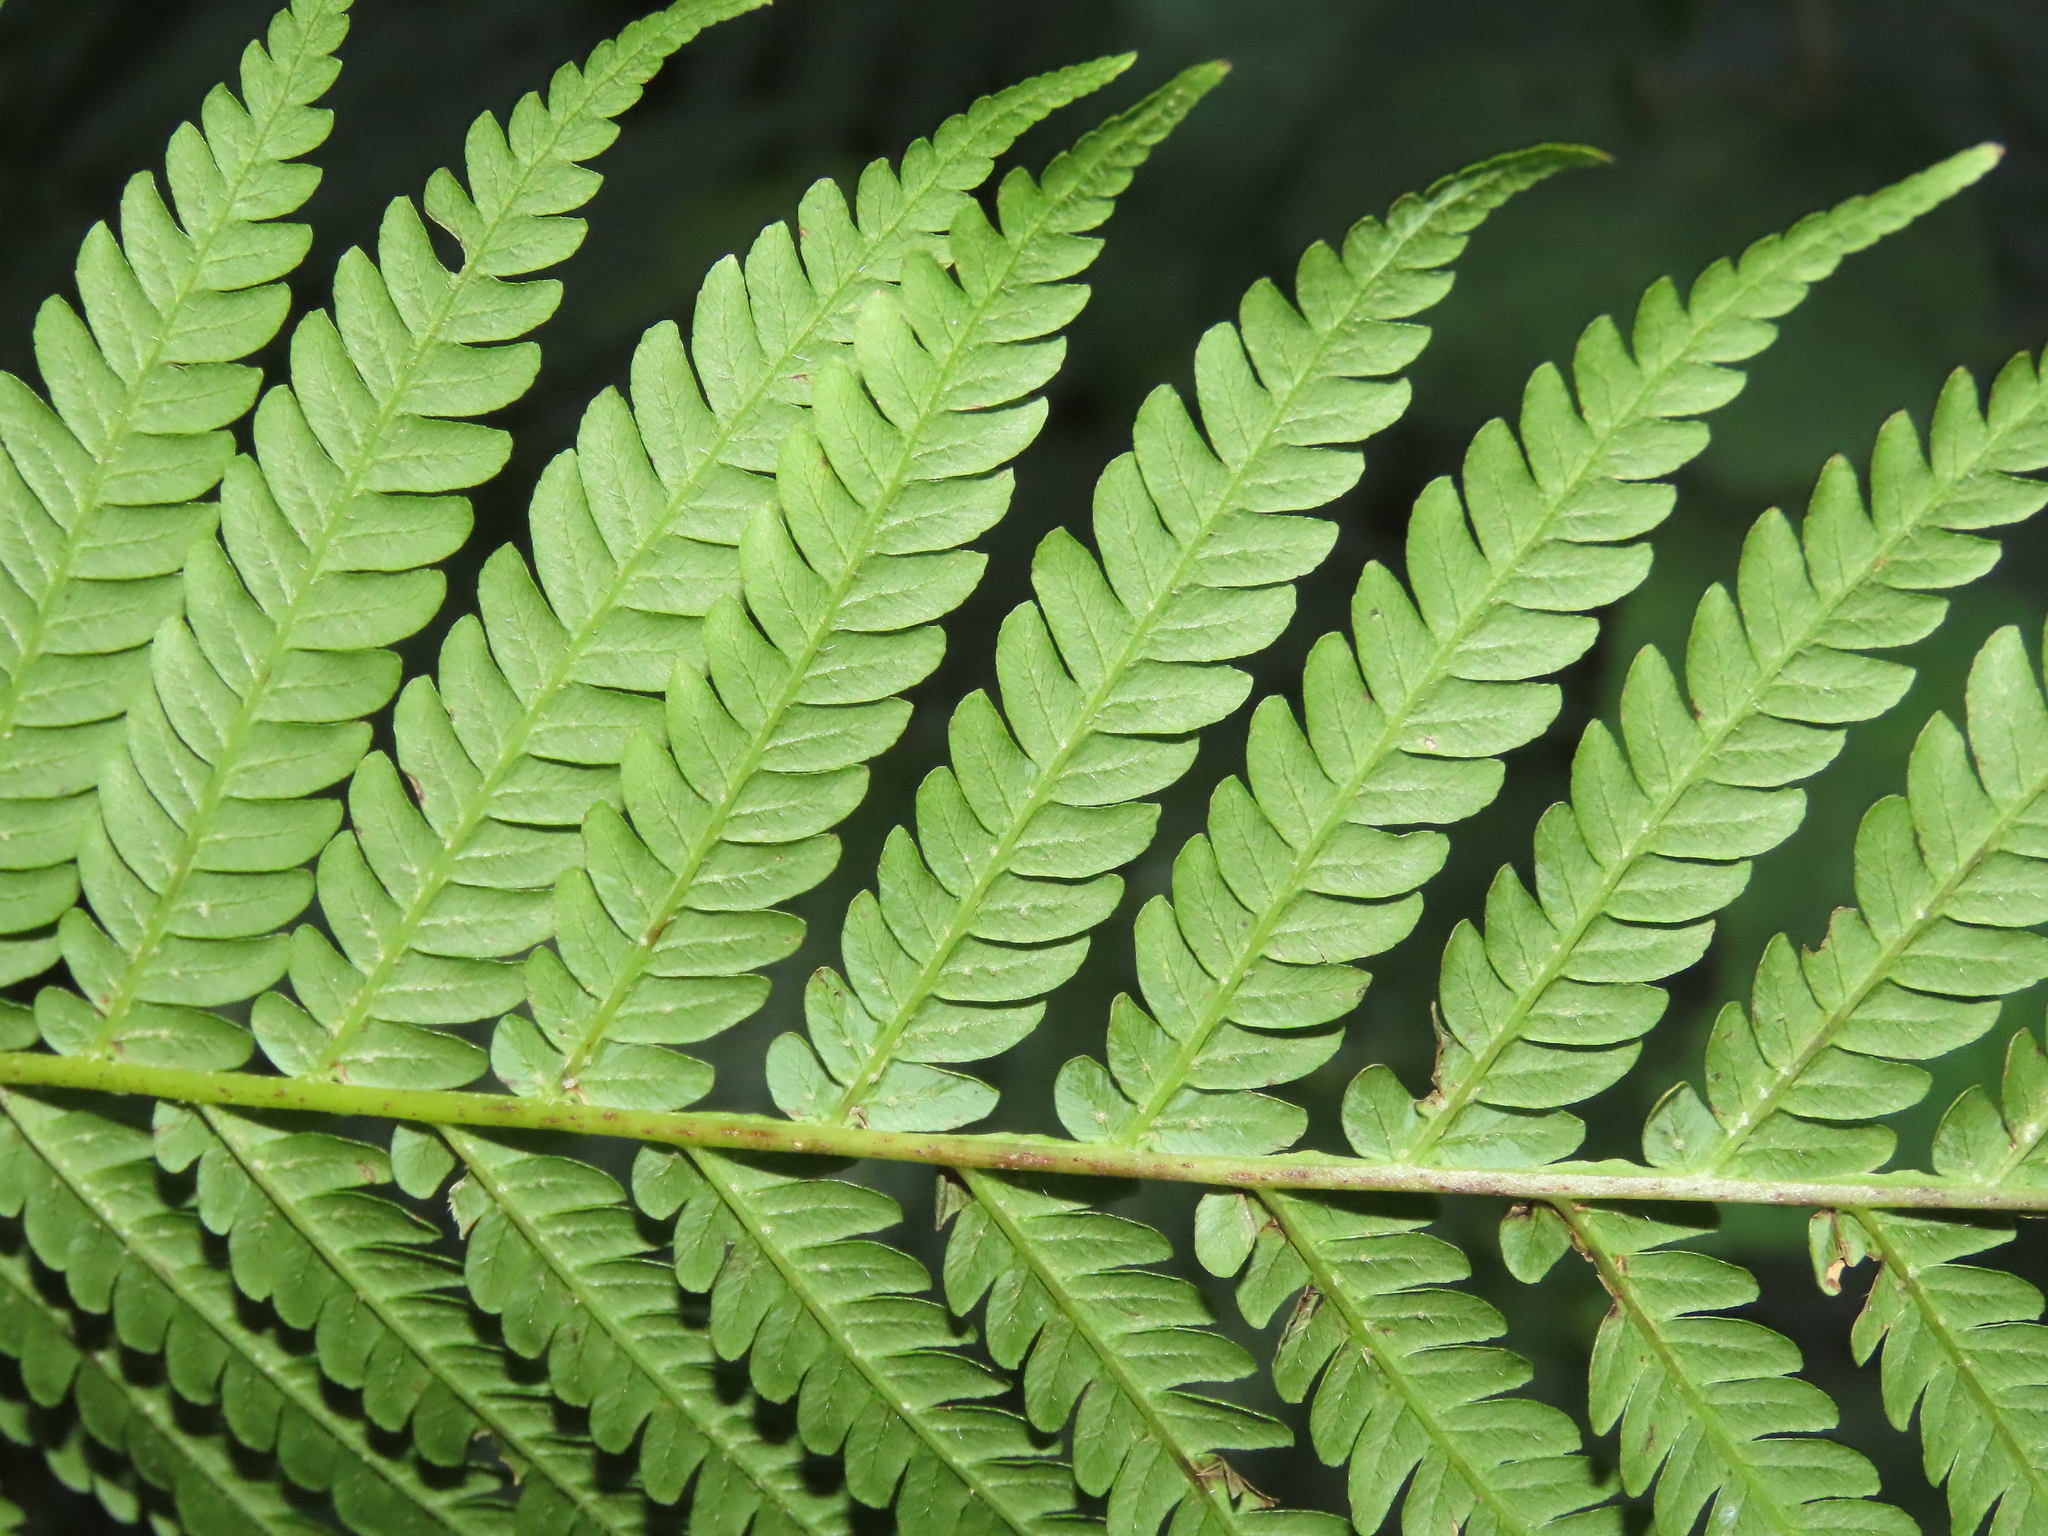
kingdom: Plantae
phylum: Tracheophyta
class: Polypodiopsida
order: Cyatheales
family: Cyatheaceae
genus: Alsophila
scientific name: Alsophila lepifera
